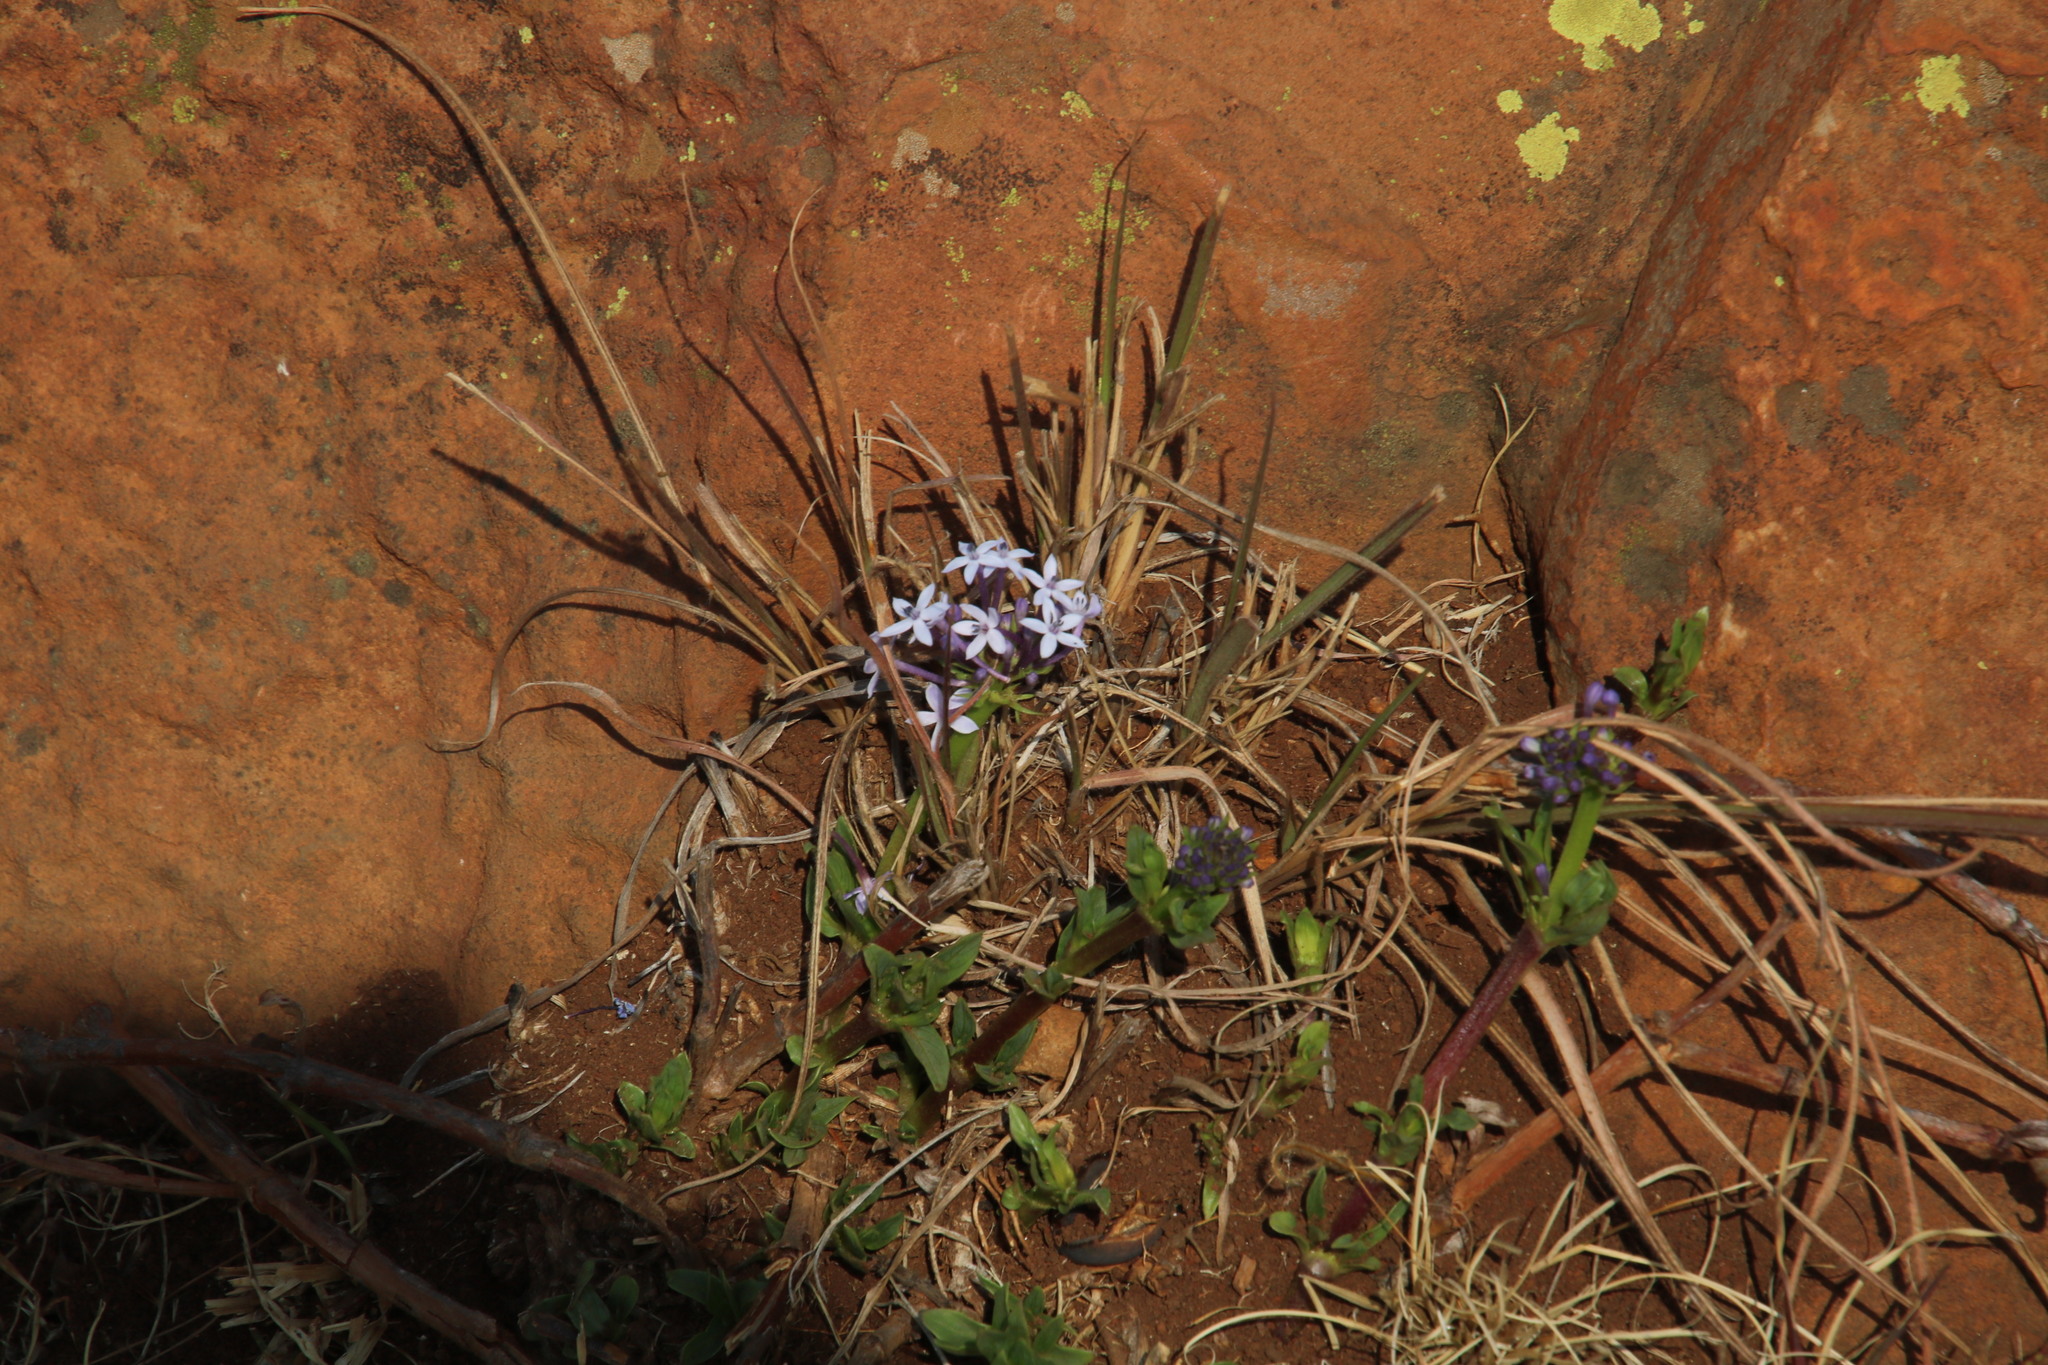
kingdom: Plantae
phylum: Tracheophyta
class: Magnoliopsida
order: Gentianales
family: Rubiaceae
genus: Pentanisia
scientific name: Pentanisia prunelloides
